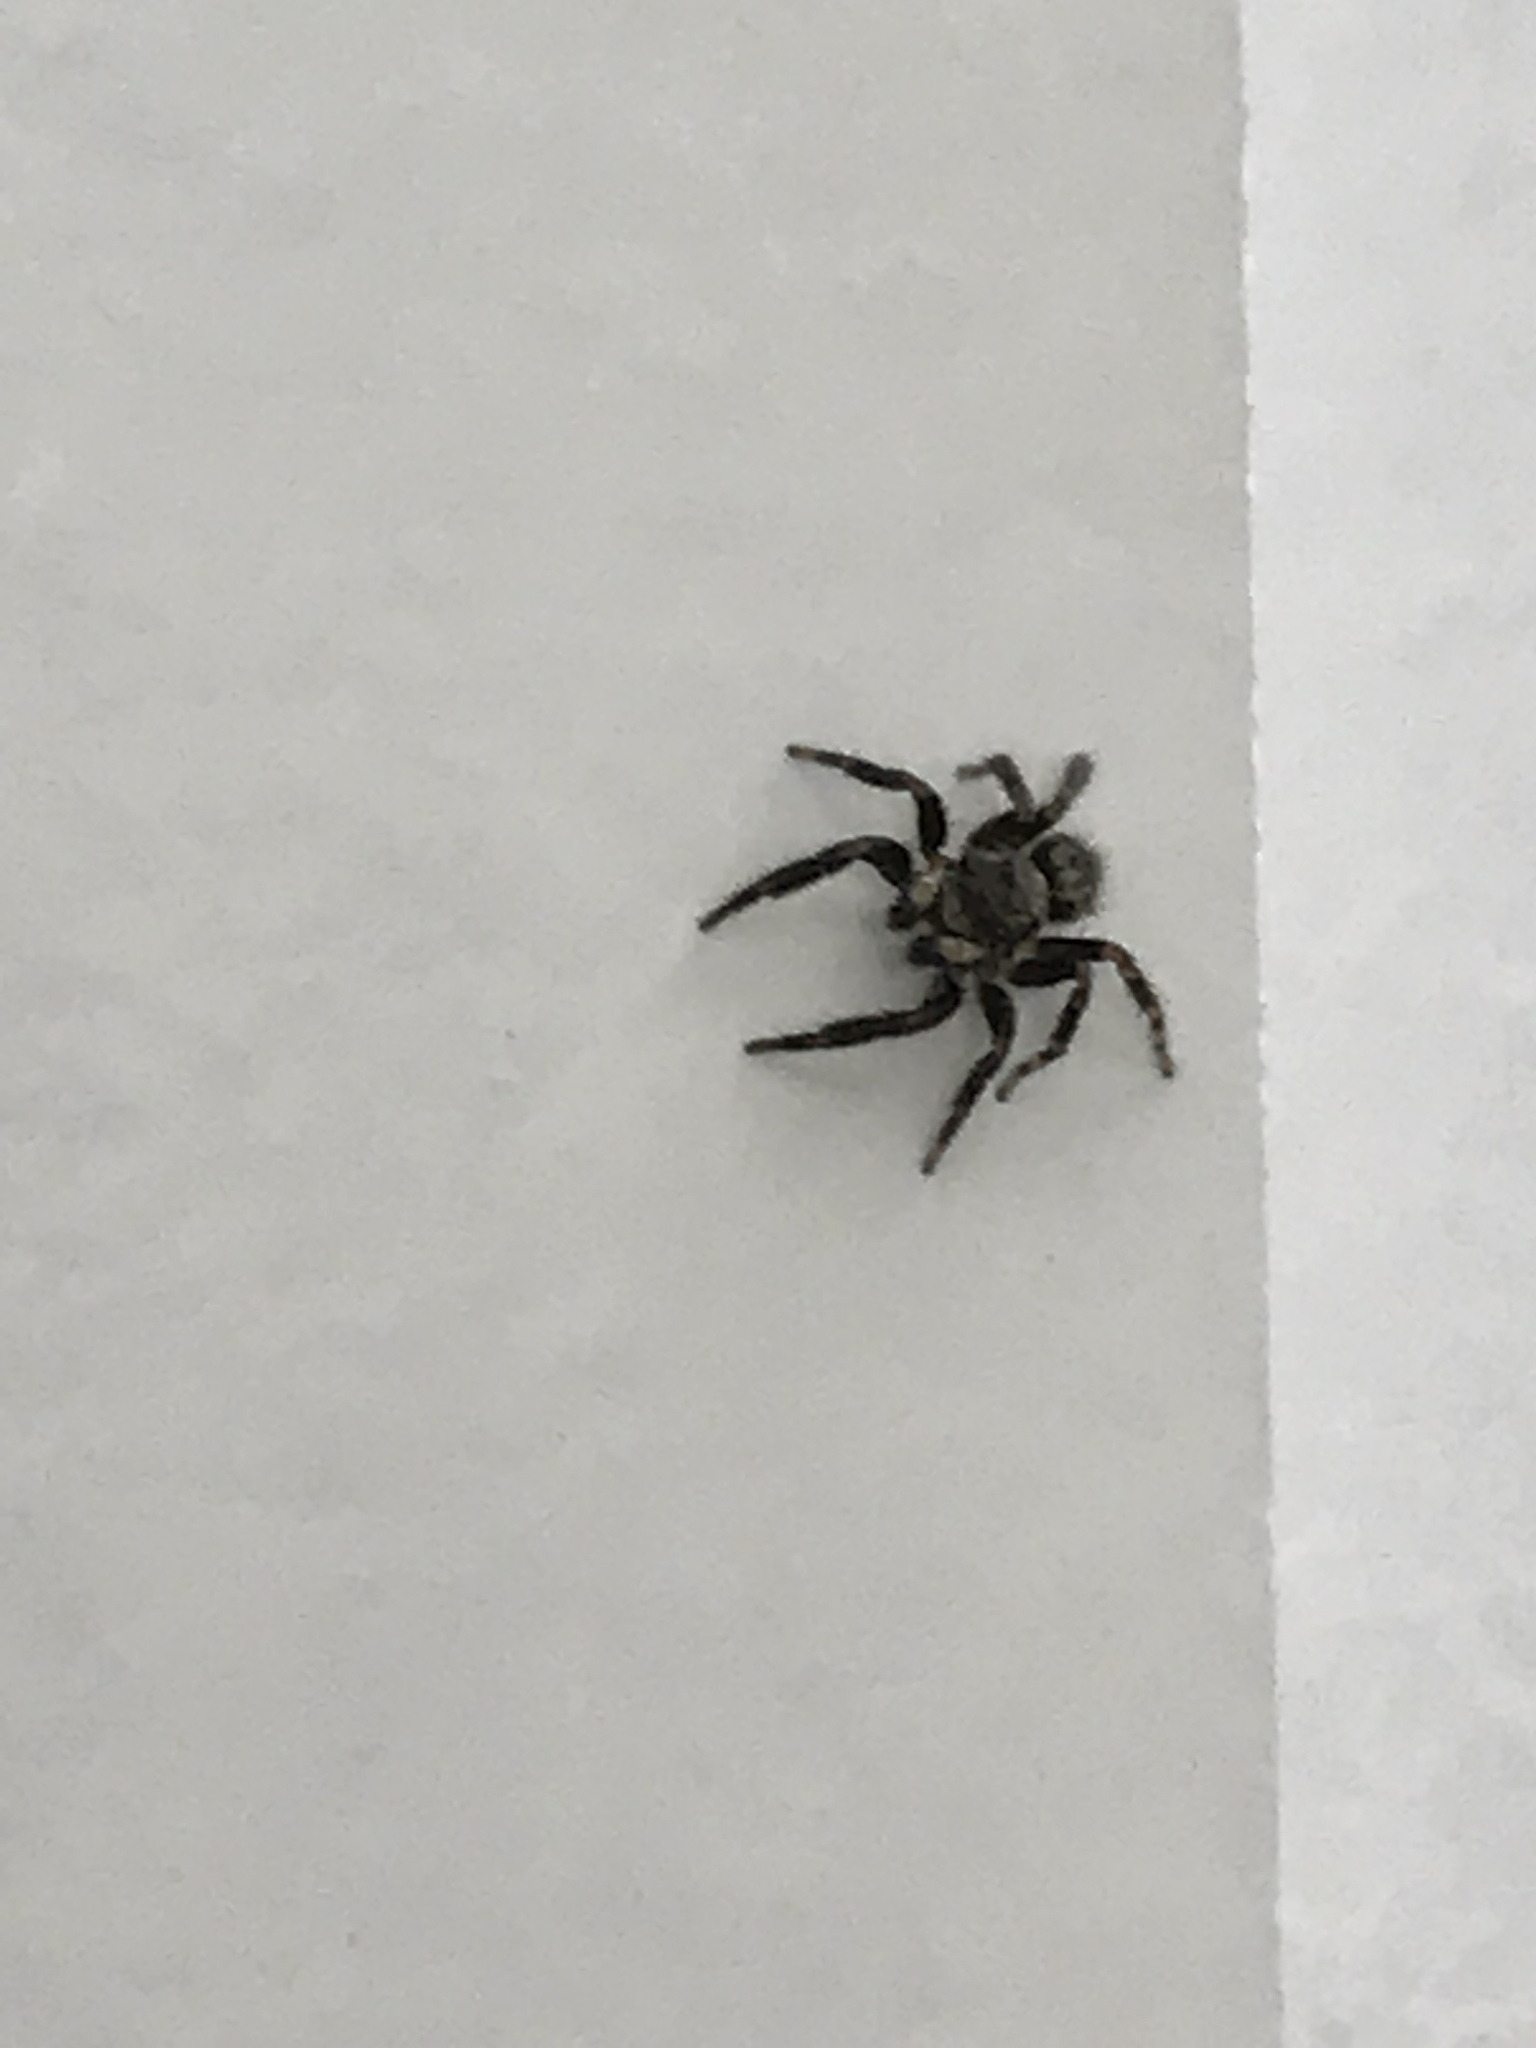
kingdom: Animalia
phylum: Arthropoda
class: Arachnida
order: Araneae
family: Salticidae
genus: Pseudeuophrys
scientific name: Pseudeuophrys erratica
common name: Jumping spider
